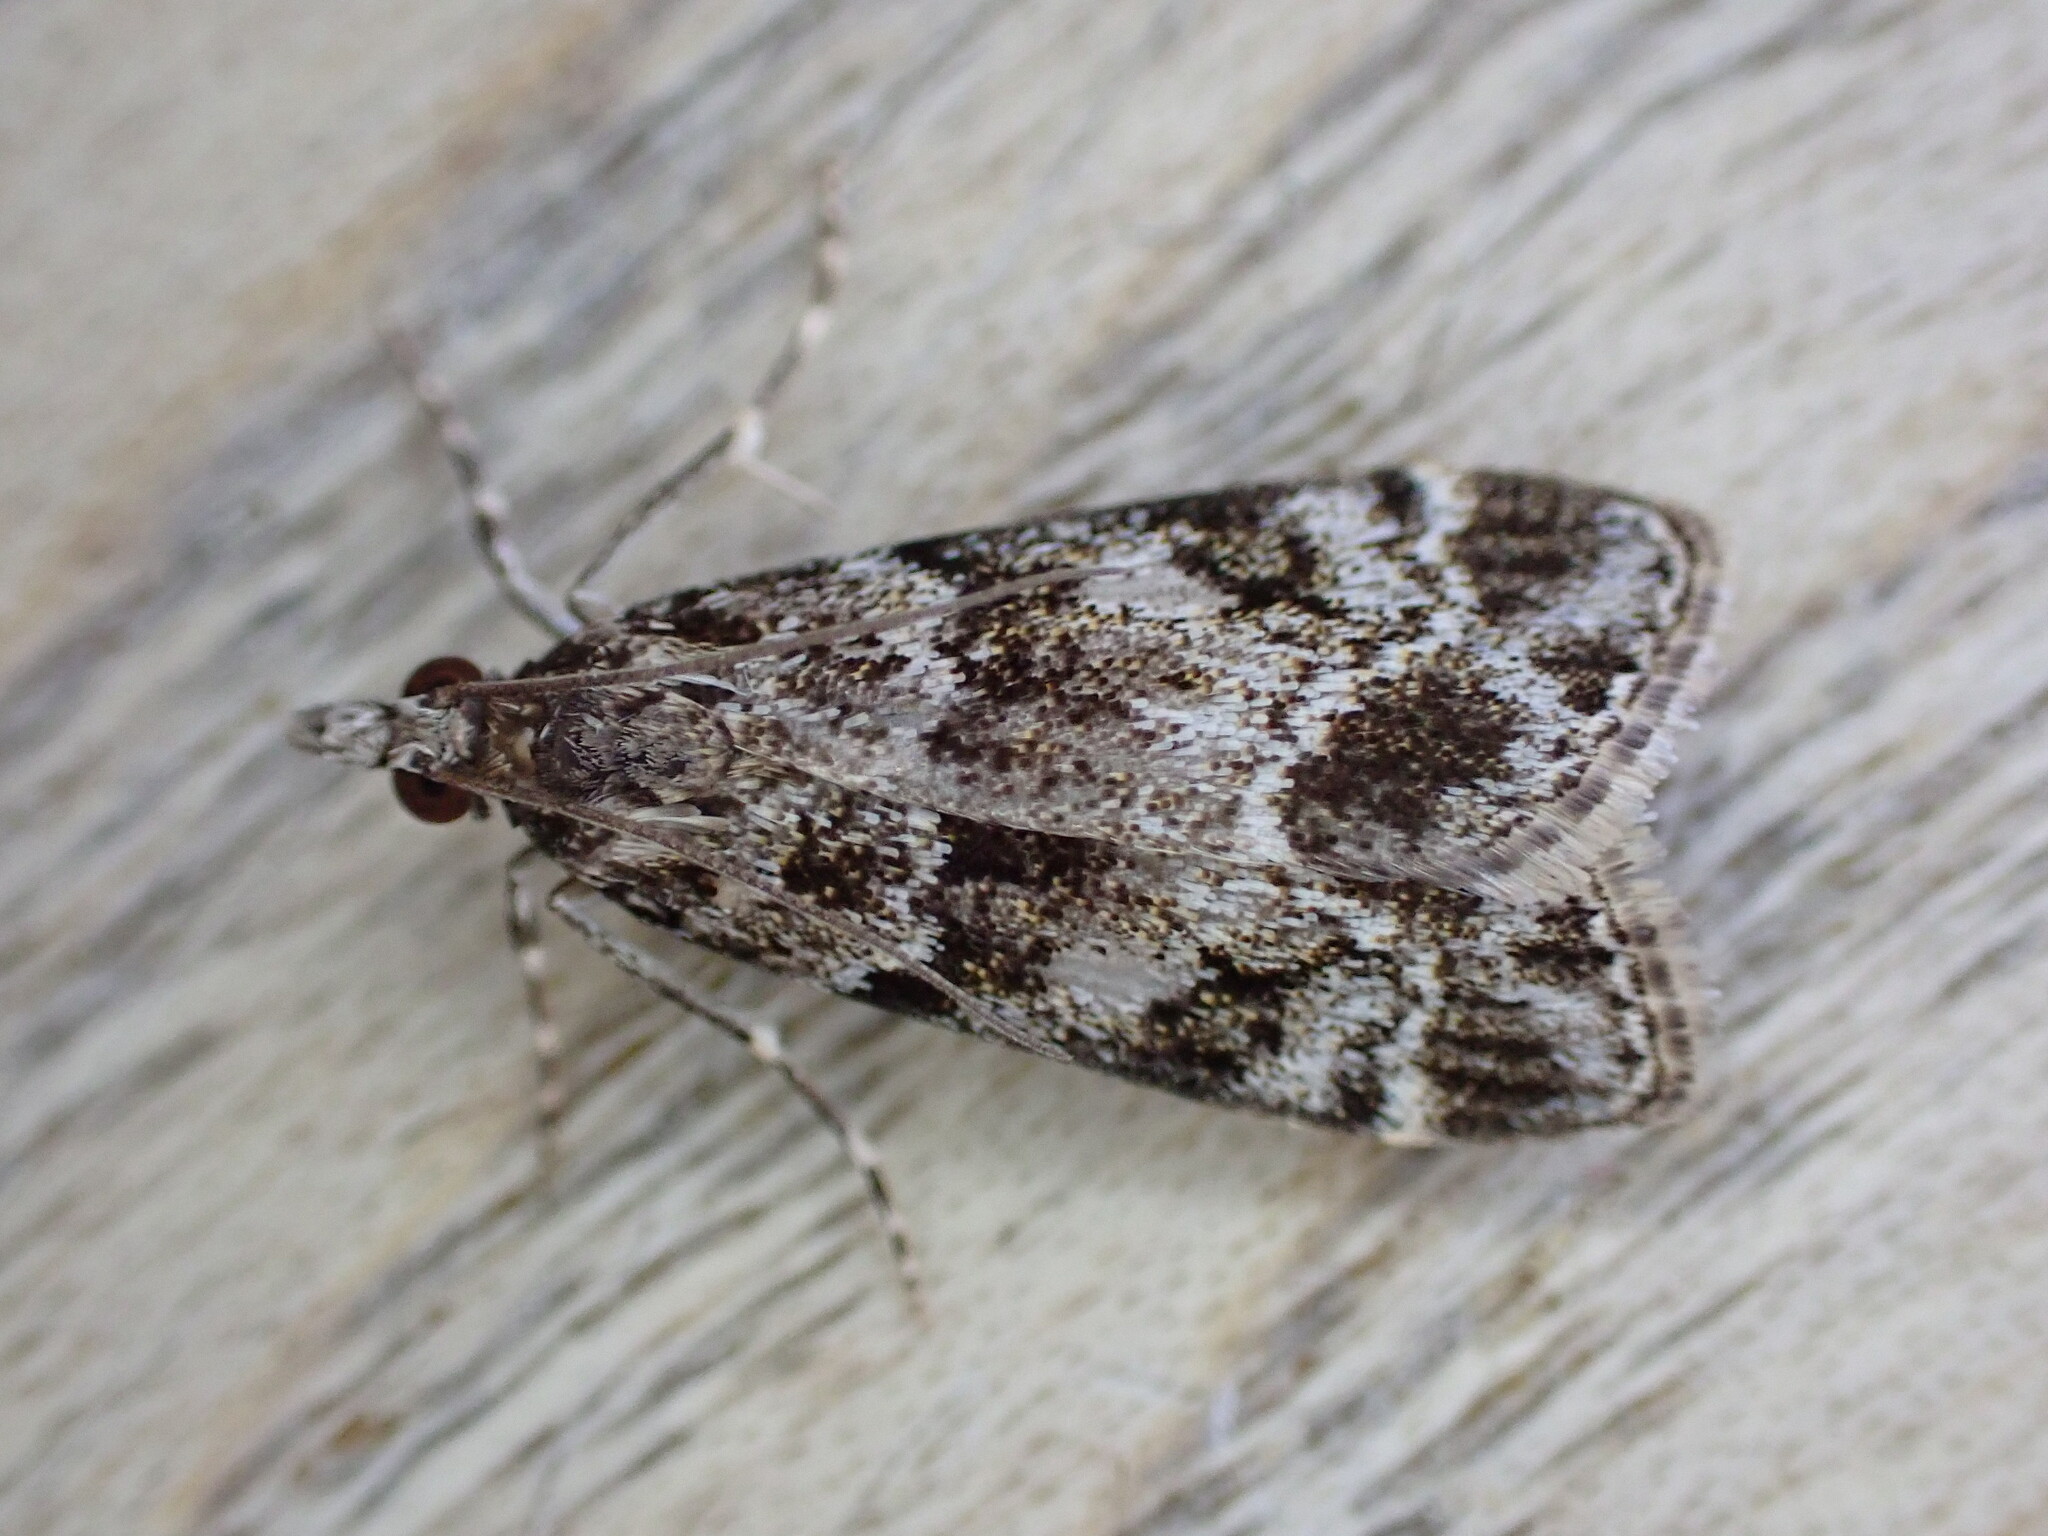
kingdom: Animalia
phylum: Arthropoda
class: Insecta
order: Lepidoptera
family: Crambidae
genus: Eudonia
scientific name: Eudonia mercurella
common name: Small grey
